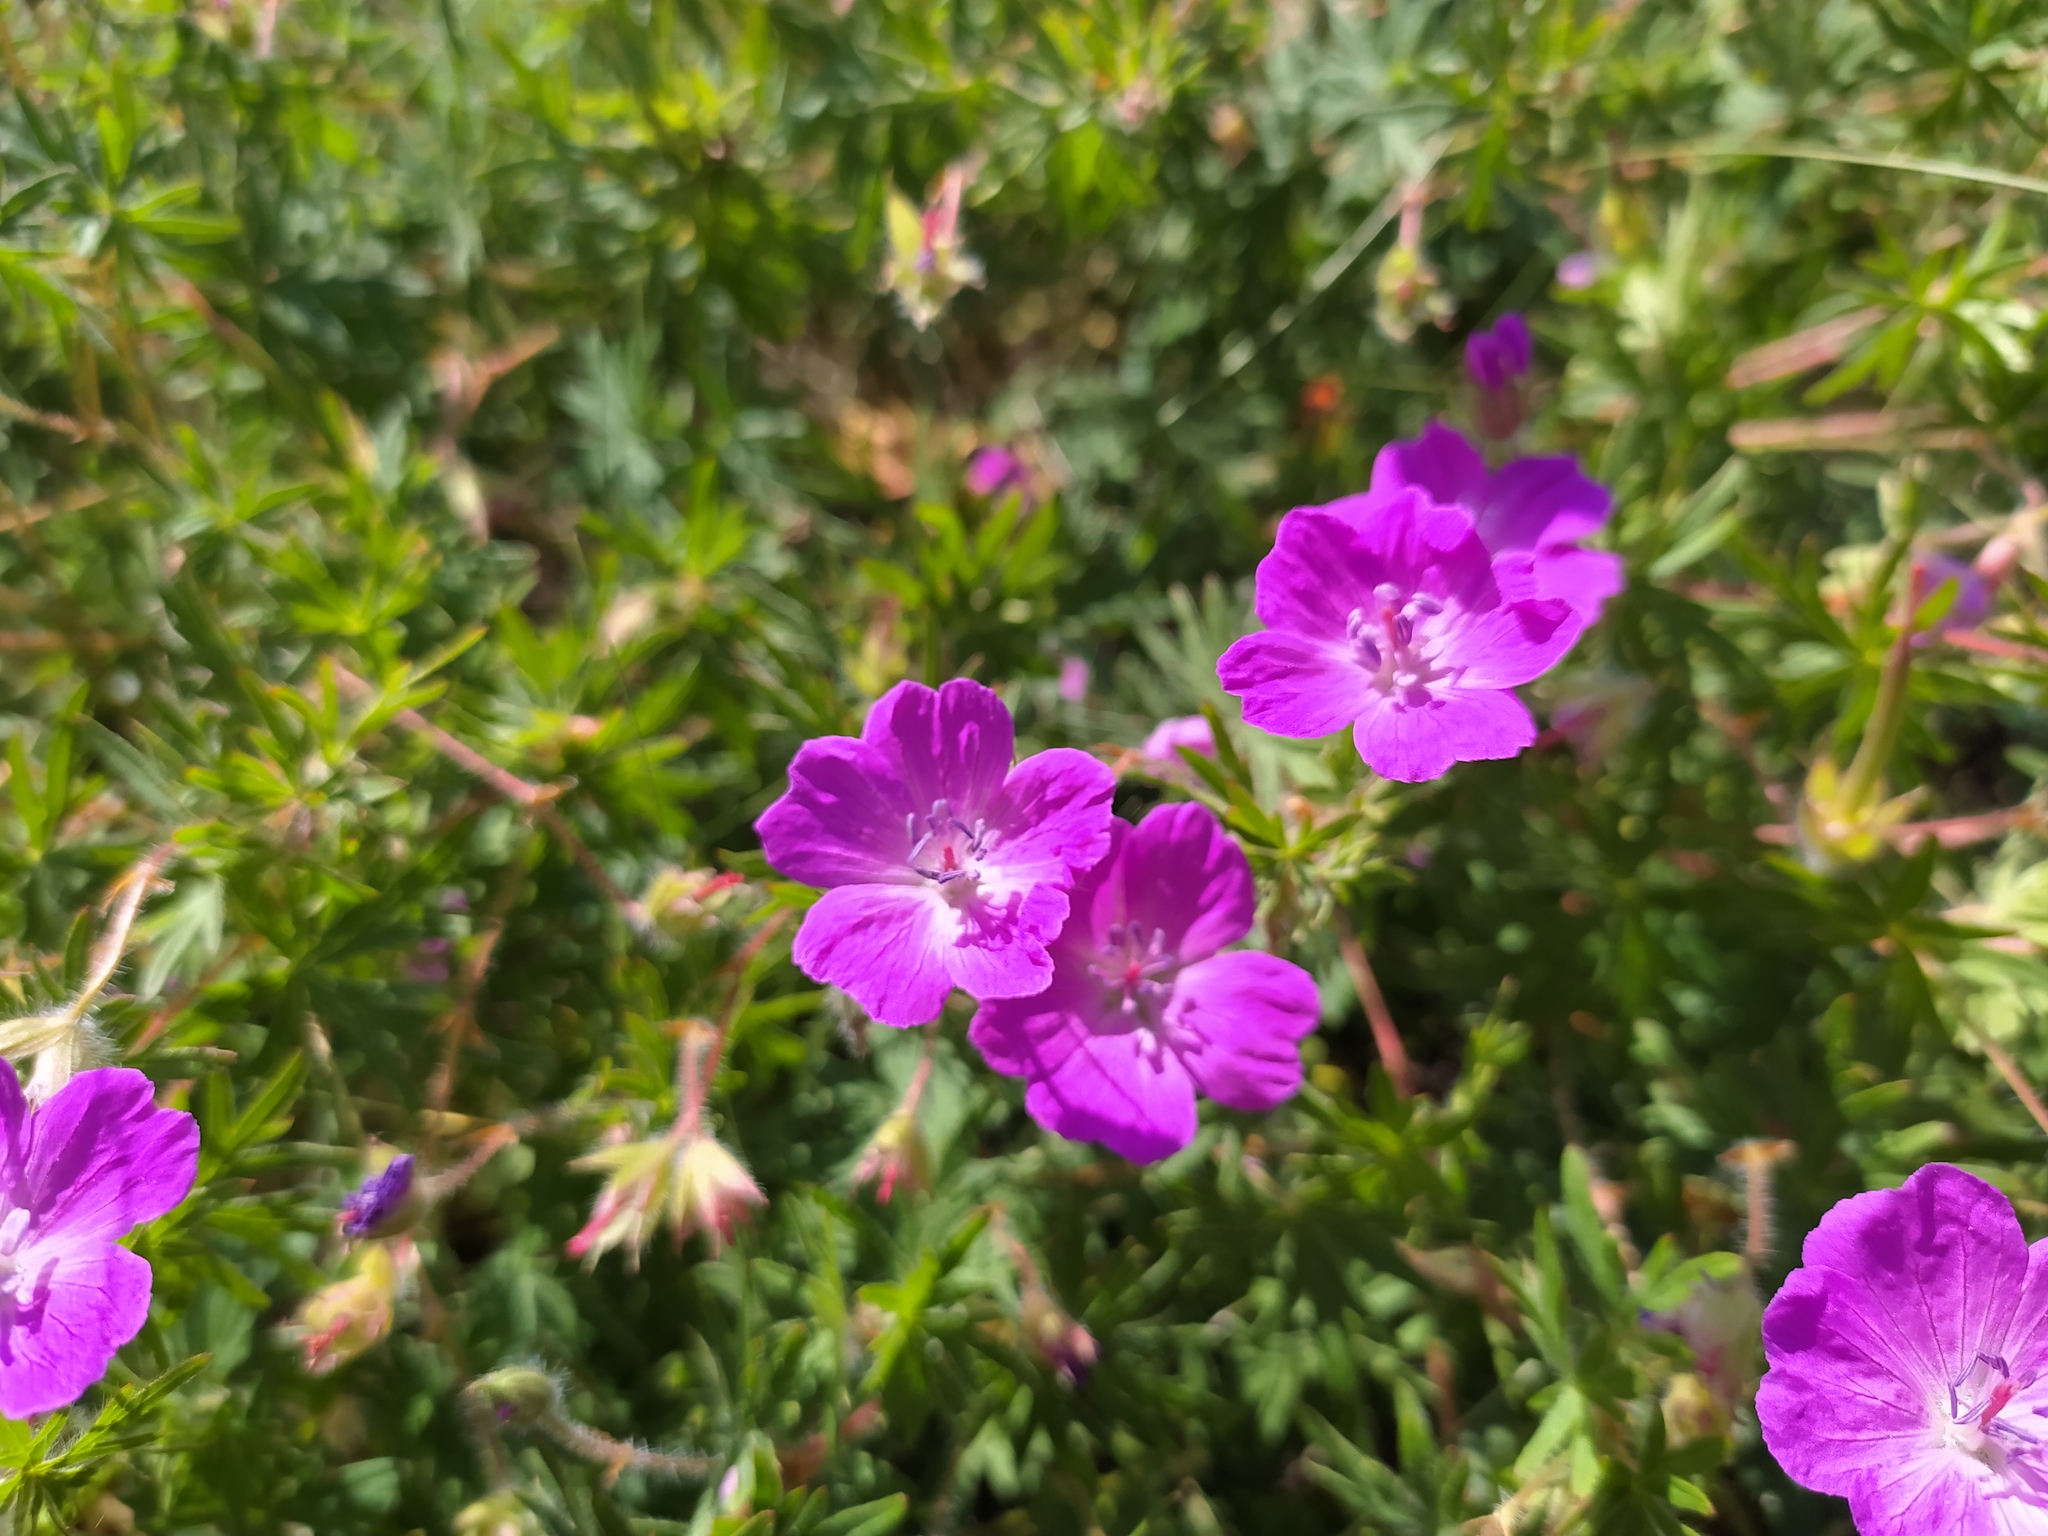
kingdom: Plantae
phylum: Tracheophyta
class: Magnoliopsida
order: Geraniales
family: Geraniaceae
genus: Geranium
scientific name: Geranium sanguineum
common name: Bloody crane's-bill
